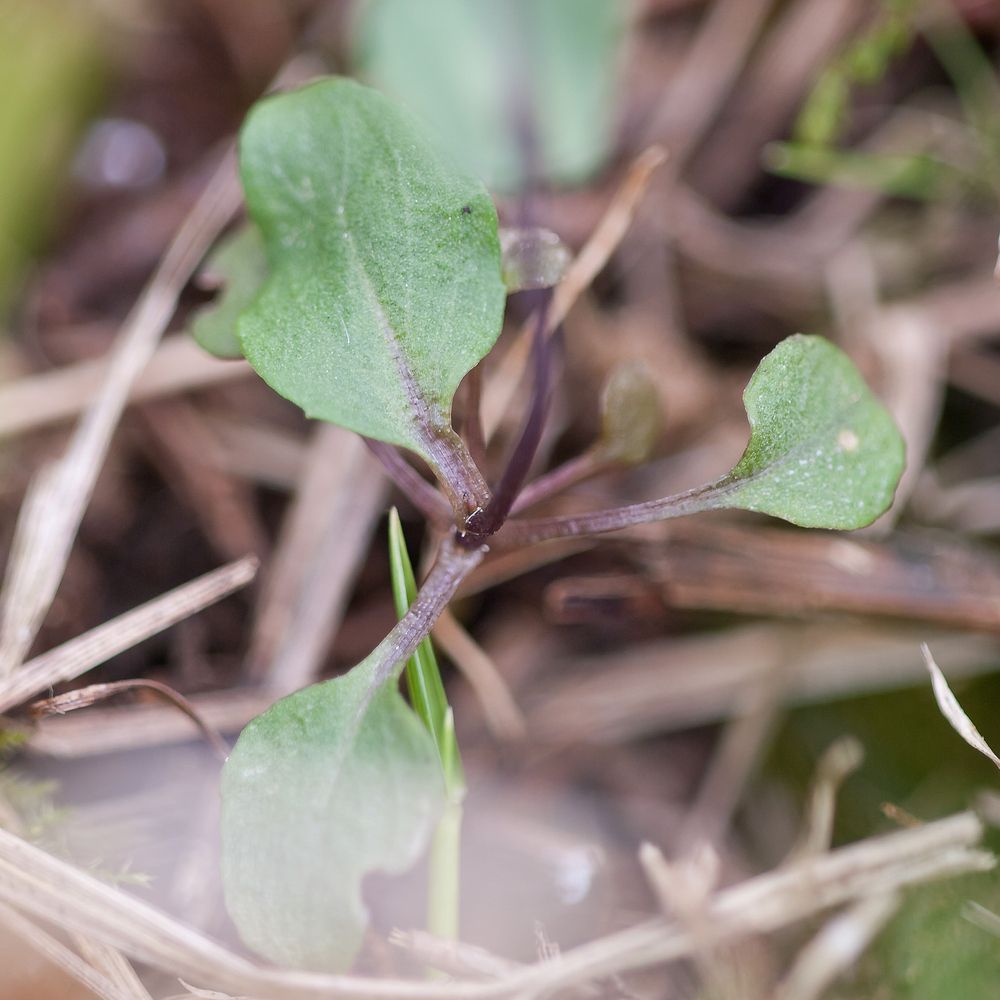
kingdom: Plantae
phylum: Tracheophyta
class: Magnoliopsida
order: Brassicales
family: Brassicaceae
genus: Noccaea
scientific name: Noccaea perfoliata
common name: Perfoliate pennycress
